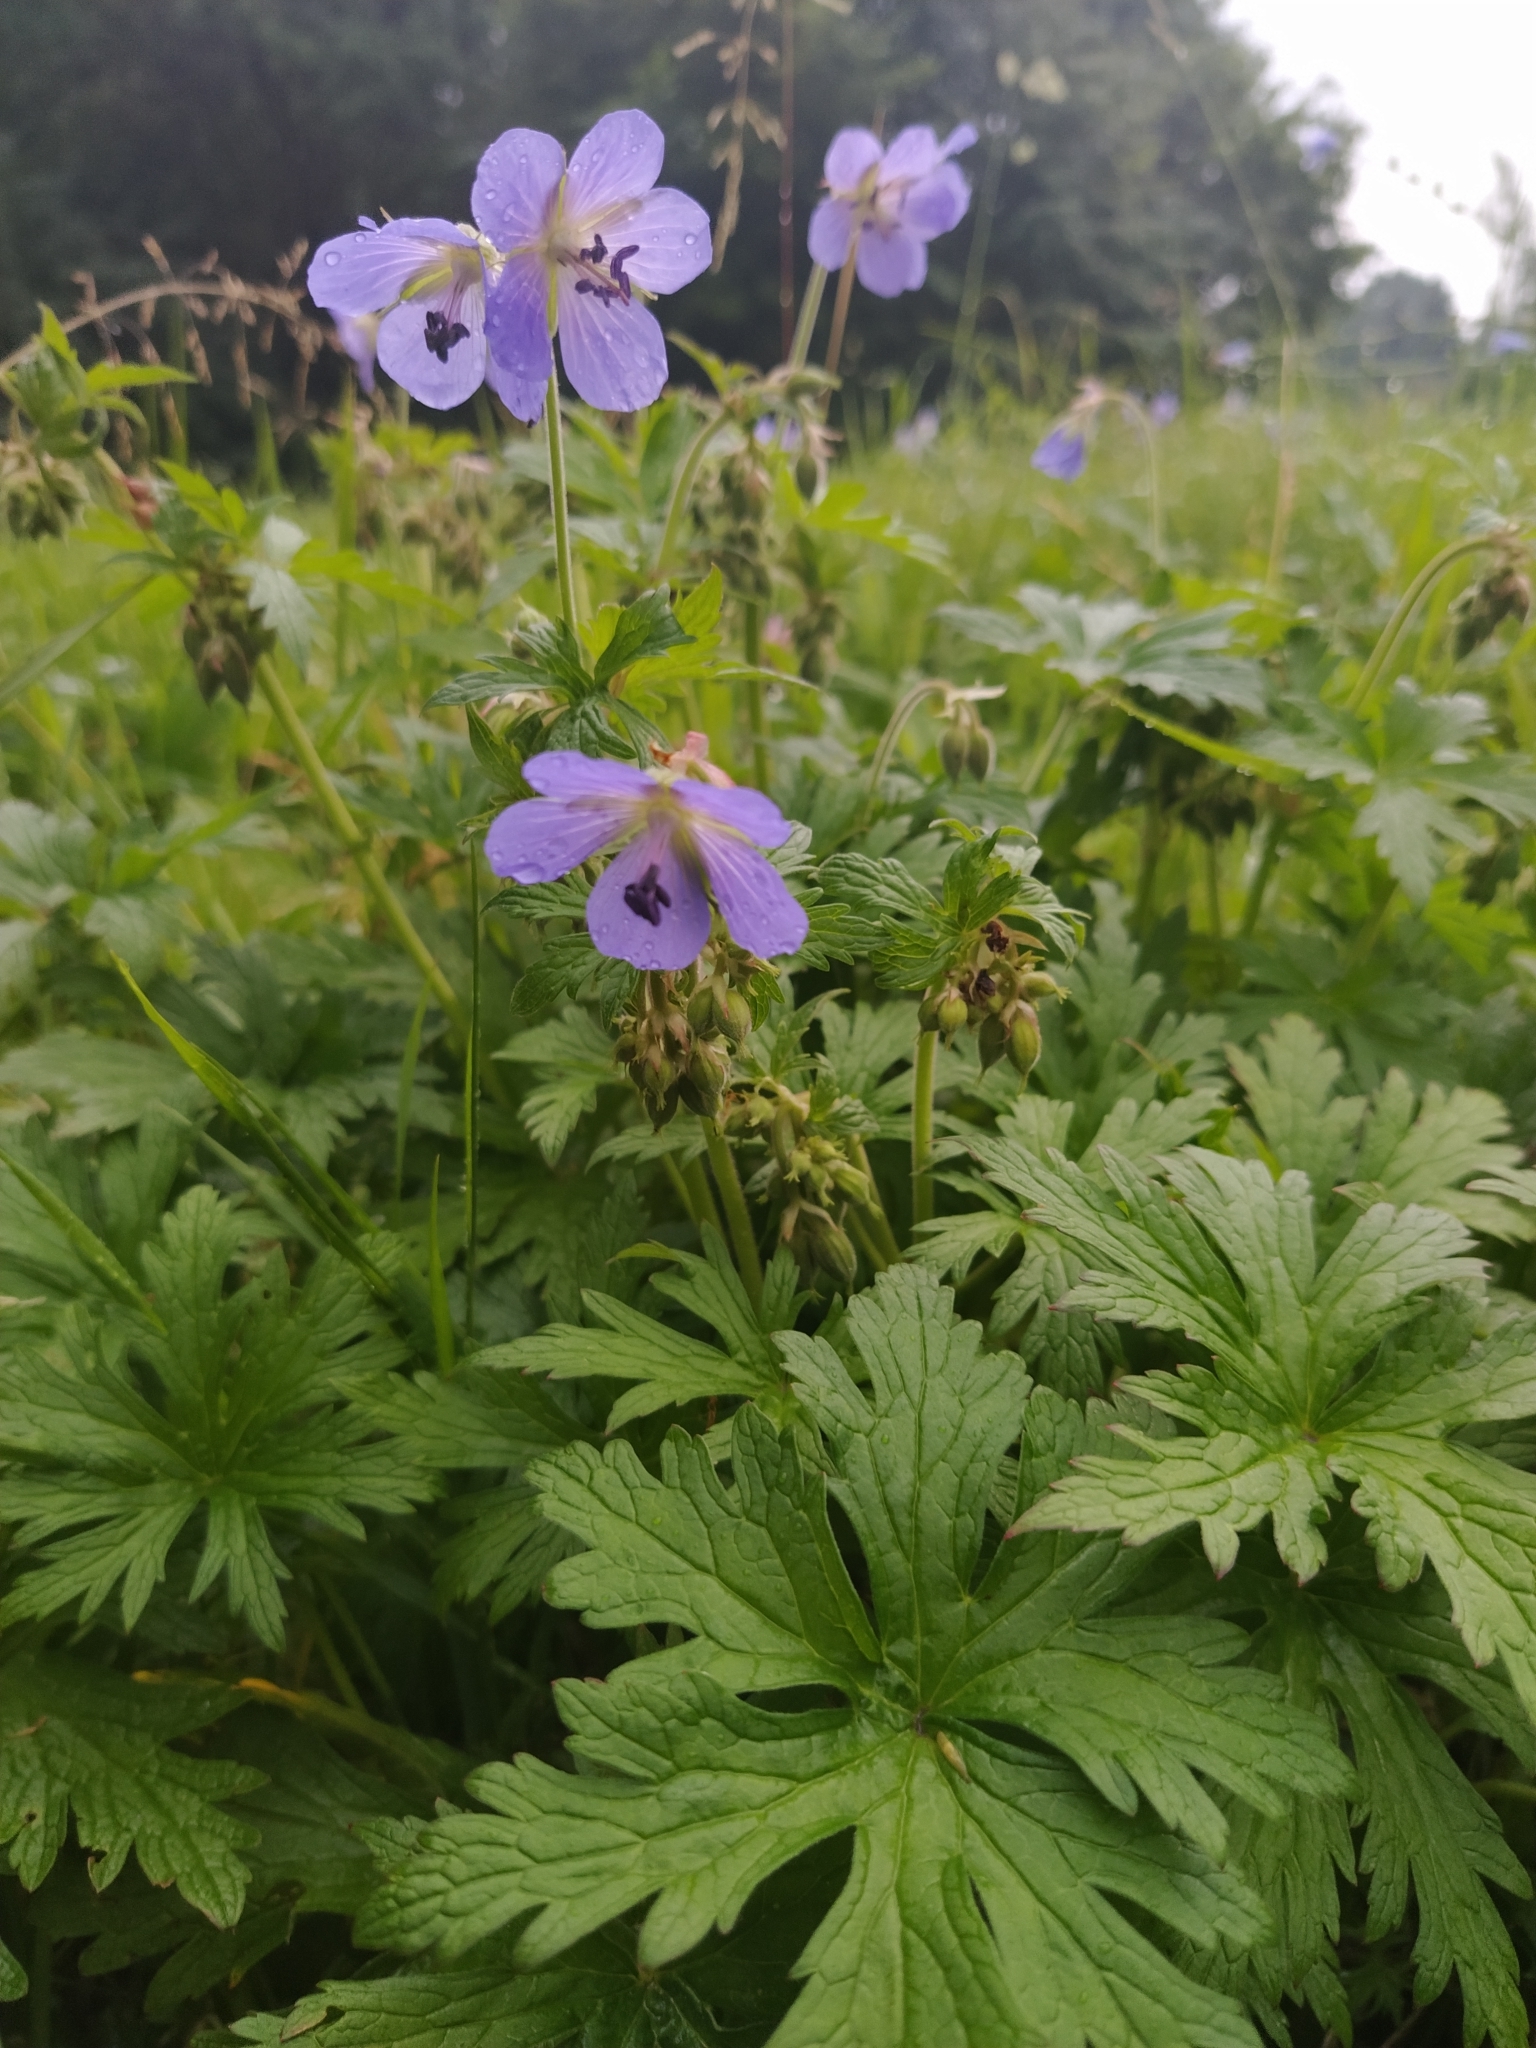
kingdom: Plantae
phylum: Tracheophyta
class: Magnoliopsida
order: Geraniales
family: Geraniaceae
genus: Geranium
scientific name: Geranium pratense
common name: Meadow crane's-bill
